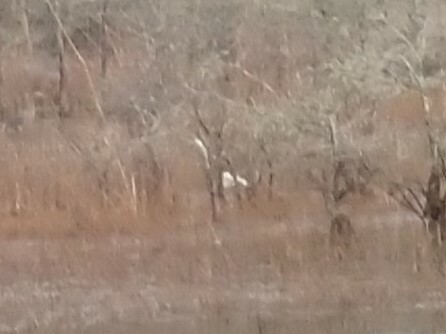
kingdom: Animalia
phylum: Chordata
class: Aves
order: Pelecaniformes
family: Ardeidae
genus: Ardea
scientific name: Ardea alba
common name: Great egret
